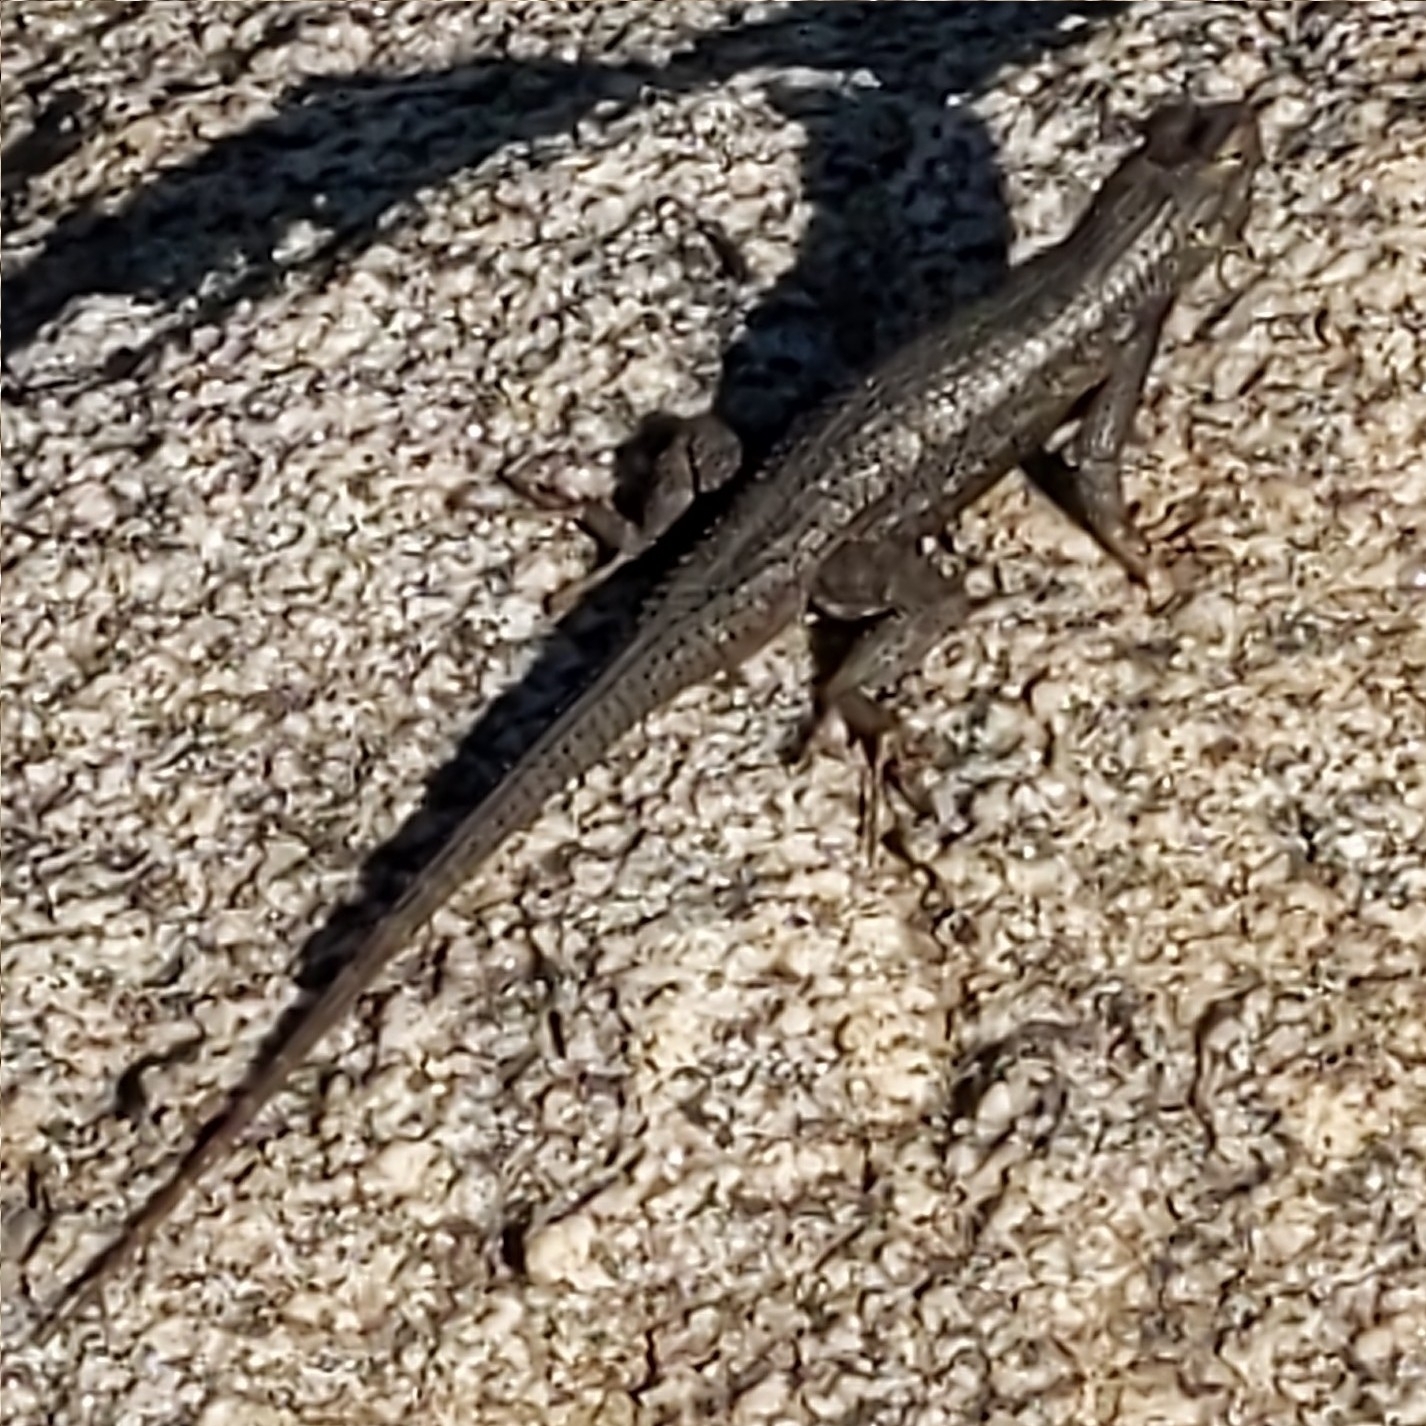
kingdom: Animalia
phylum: Chordata
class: Squamata
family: Phrynosomatidae
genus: Sceloporus
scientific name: Sceloporus occidentalis
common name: Western fence lizard
